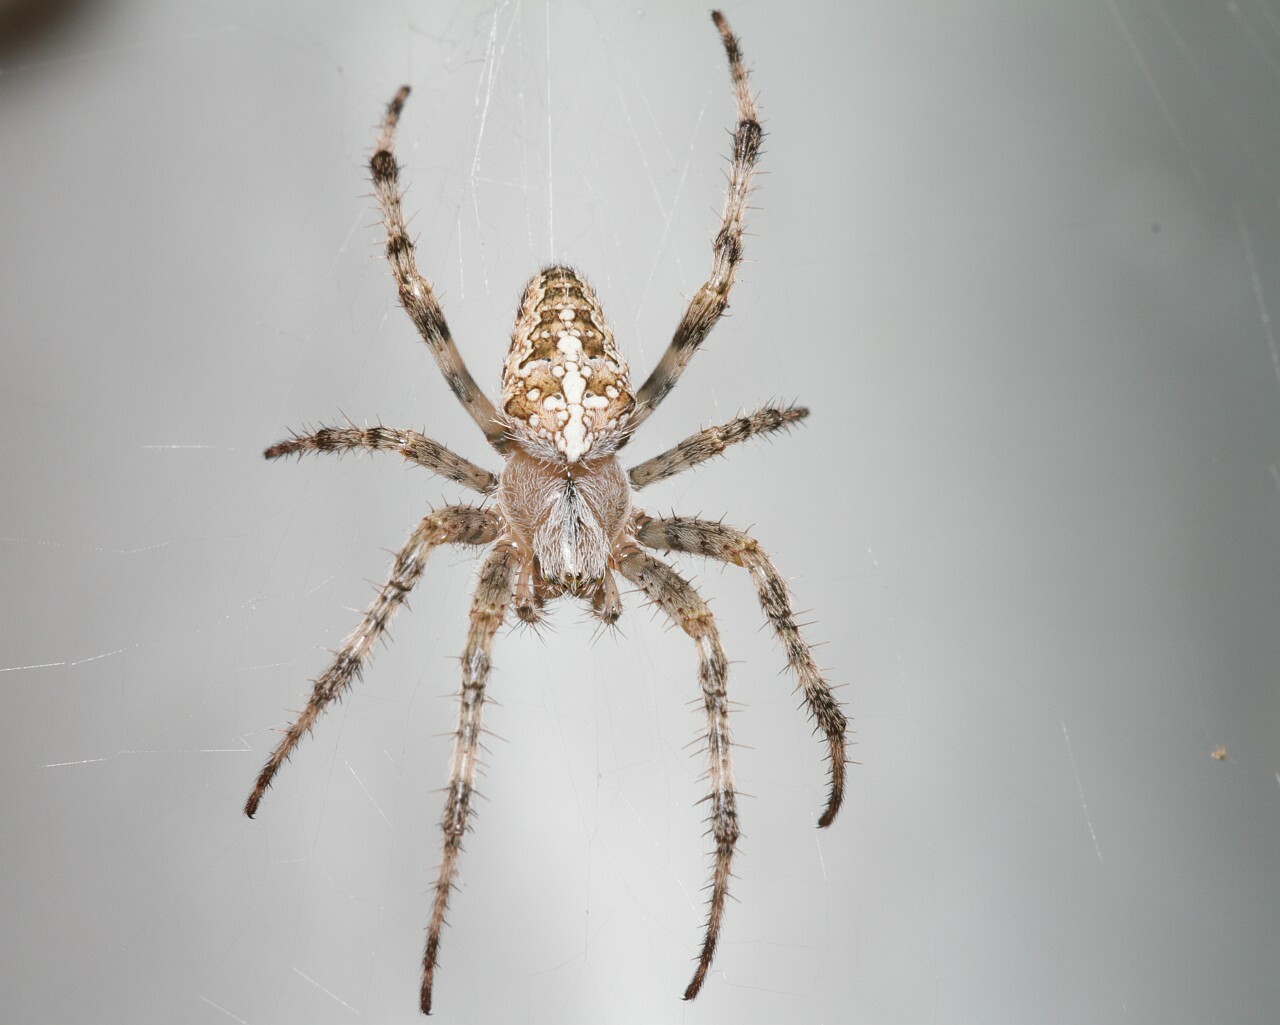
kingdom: Animalia
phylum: Arthropoda
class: Arachnida
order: Araneae
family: Araneidae
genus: Araneus
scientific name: Araneus diadematus
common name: Cross orbweaver
